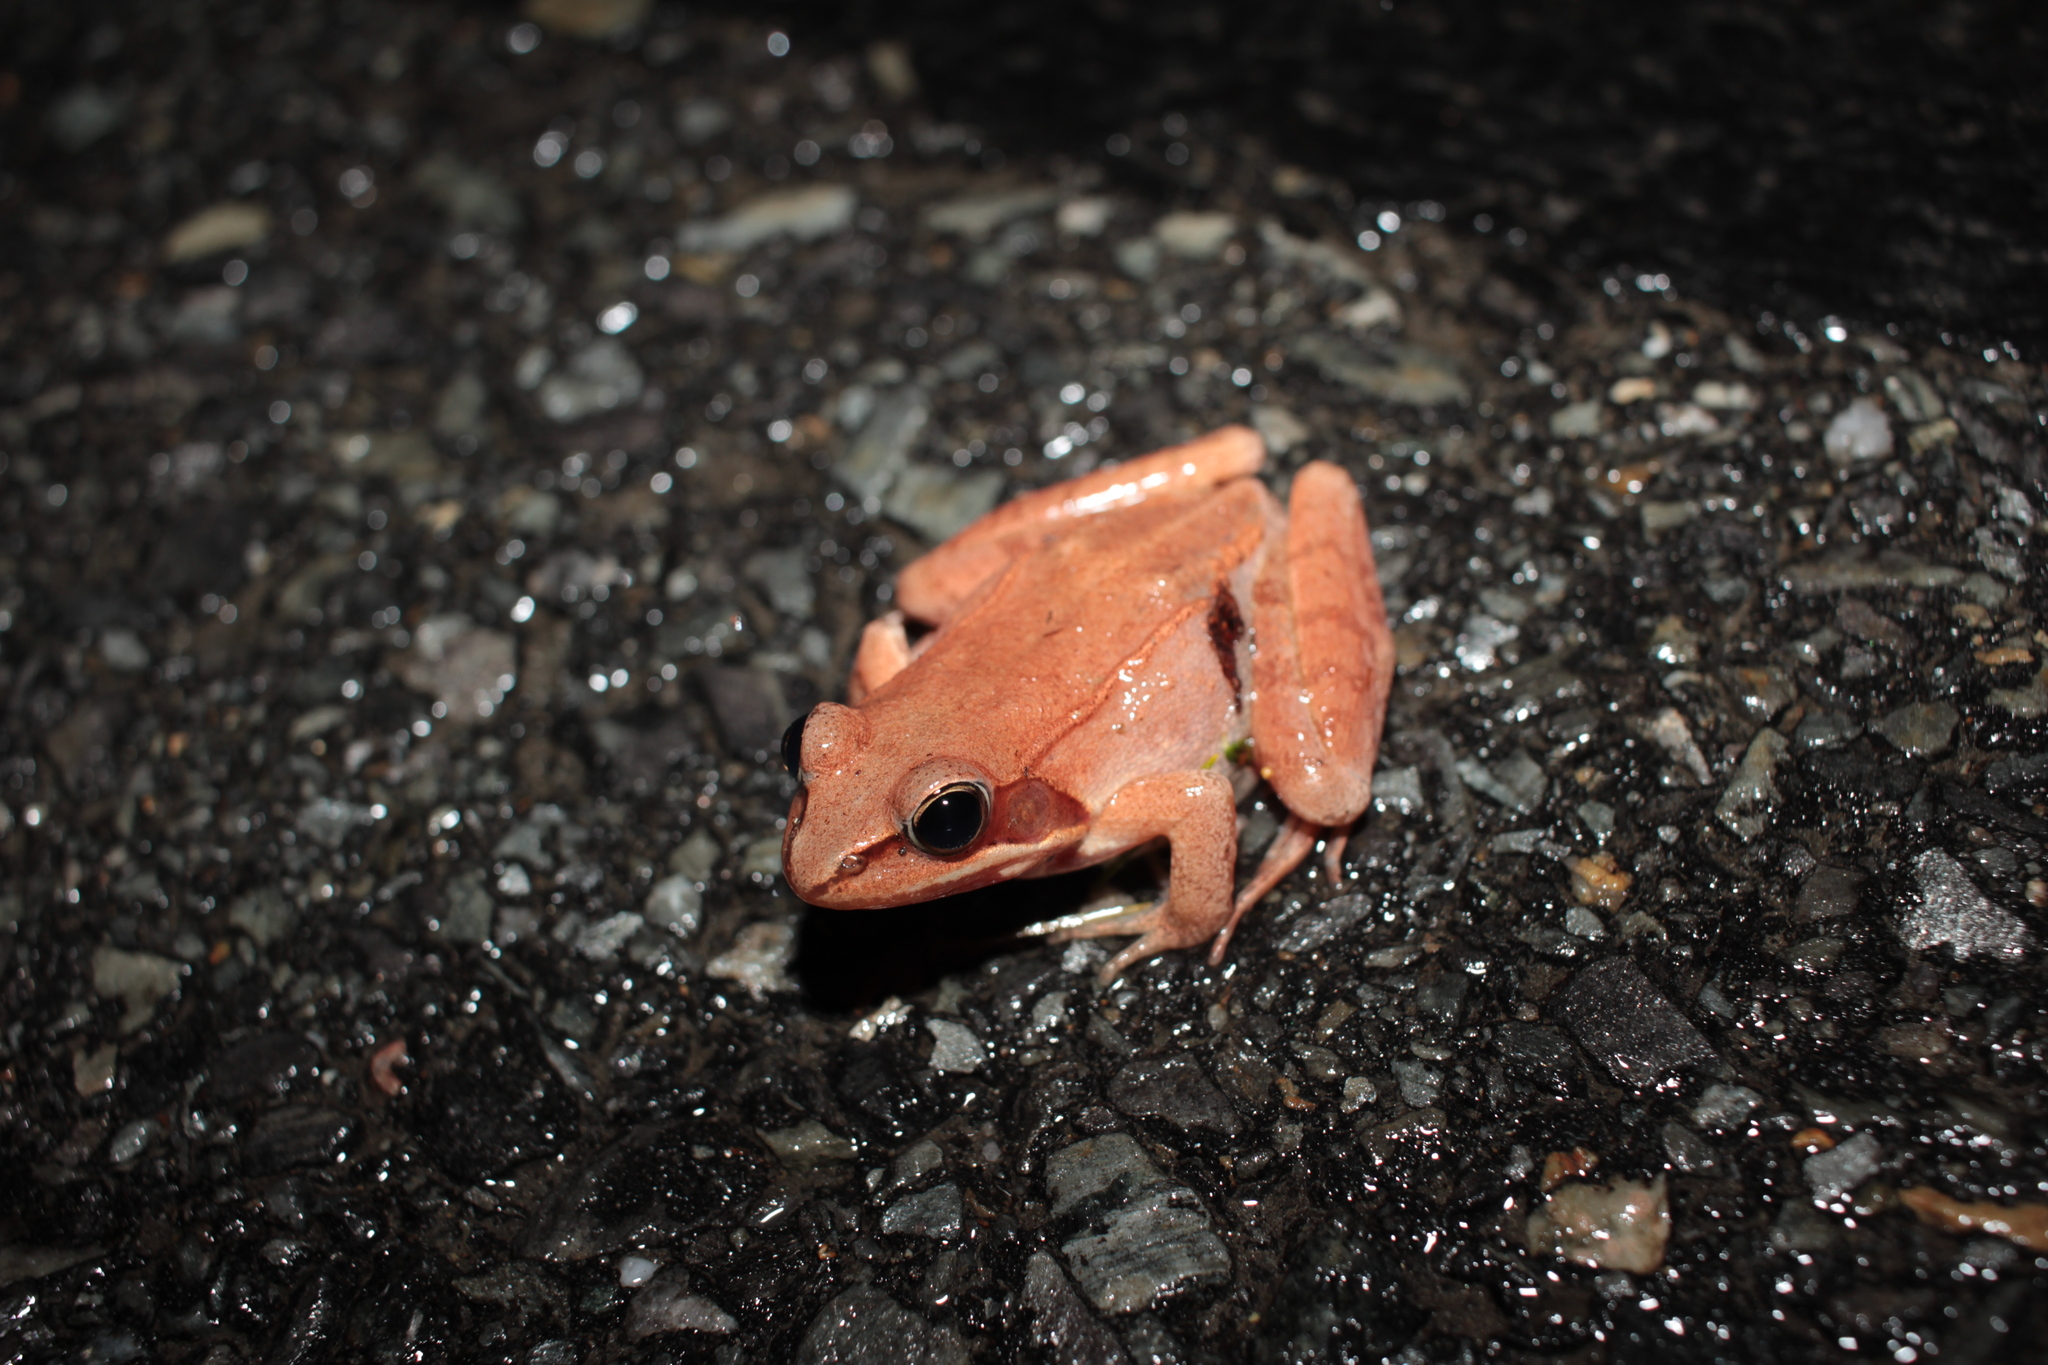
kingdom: Animalia
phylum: Chordata
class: Amphibia
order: Anura
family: Ranidae
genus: Lithobates
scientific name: Lithobates sylvaticus
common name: Wood frog
